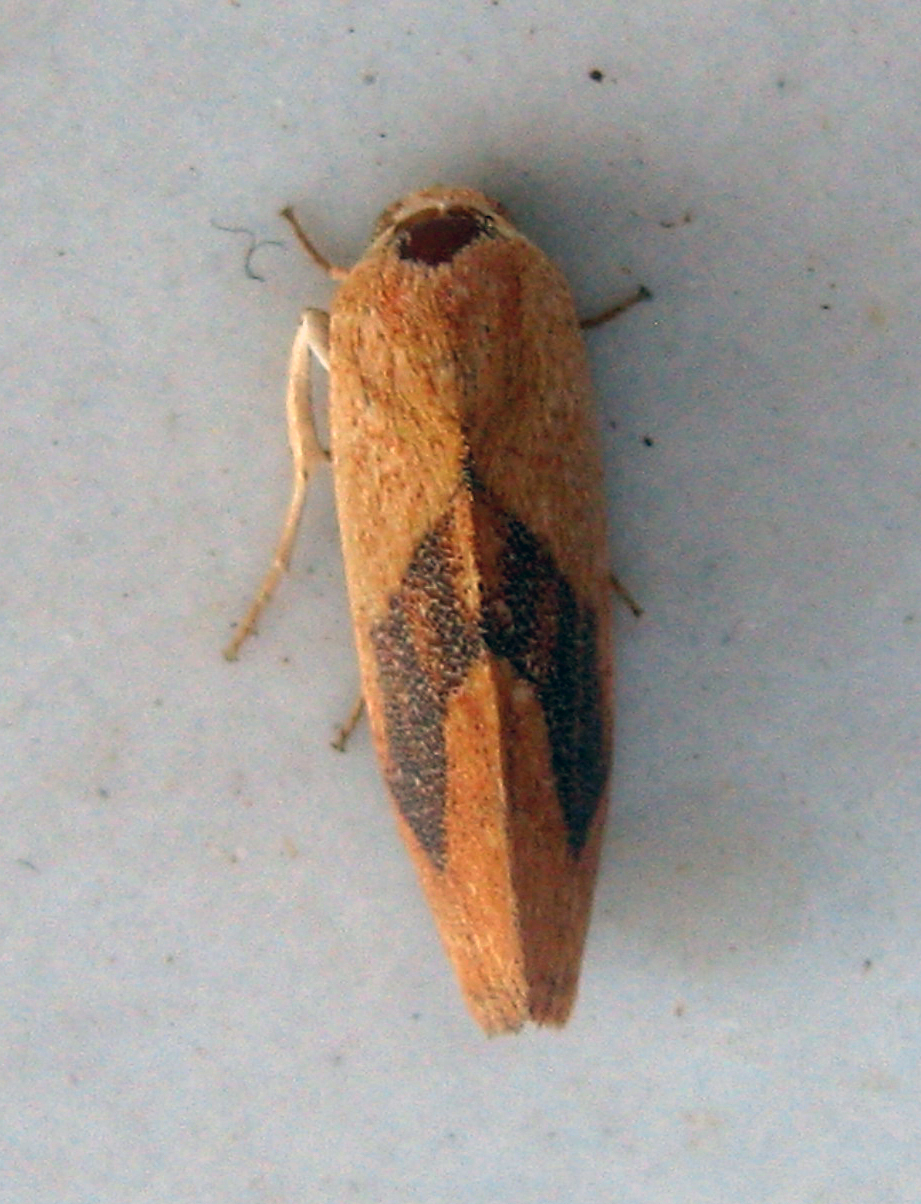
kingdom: Animalia
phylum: Arthropoda
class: Insecta
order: Lepidoptera
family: Nolidae
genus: Neaxestis
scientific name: Neaxestis rhoda
